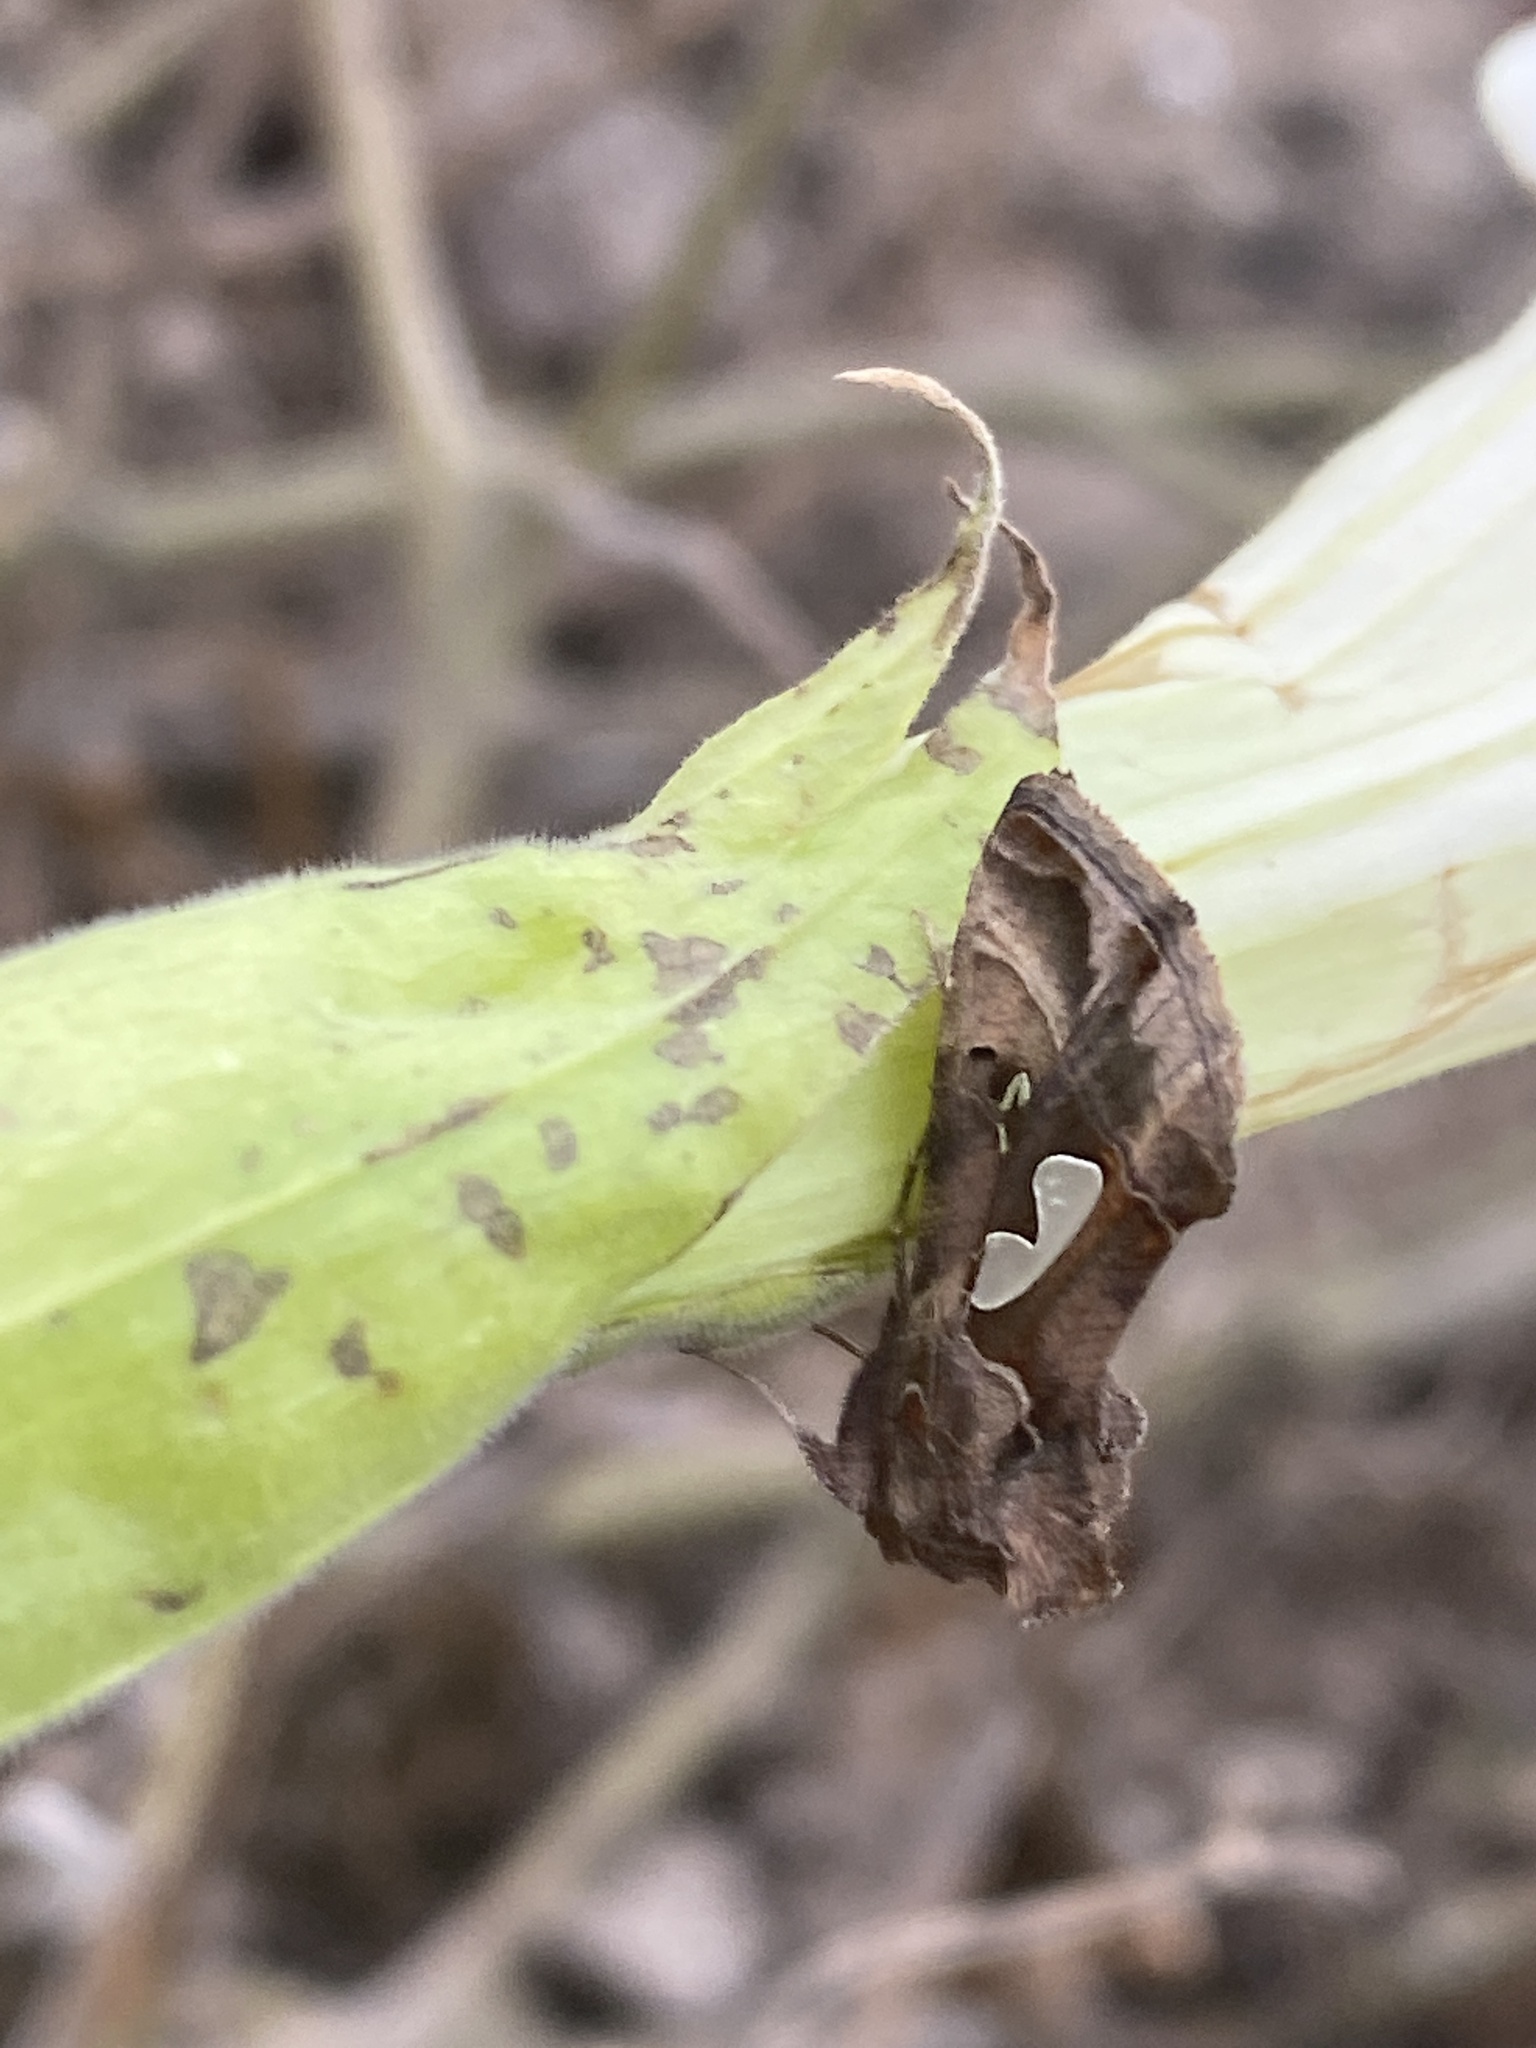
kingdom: Animalia
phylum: Arthropoda
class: Insecta
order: Lepidoptera
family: Noctuidae
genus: Megalographa
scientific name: Megalographa biloba
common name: Cutworm
